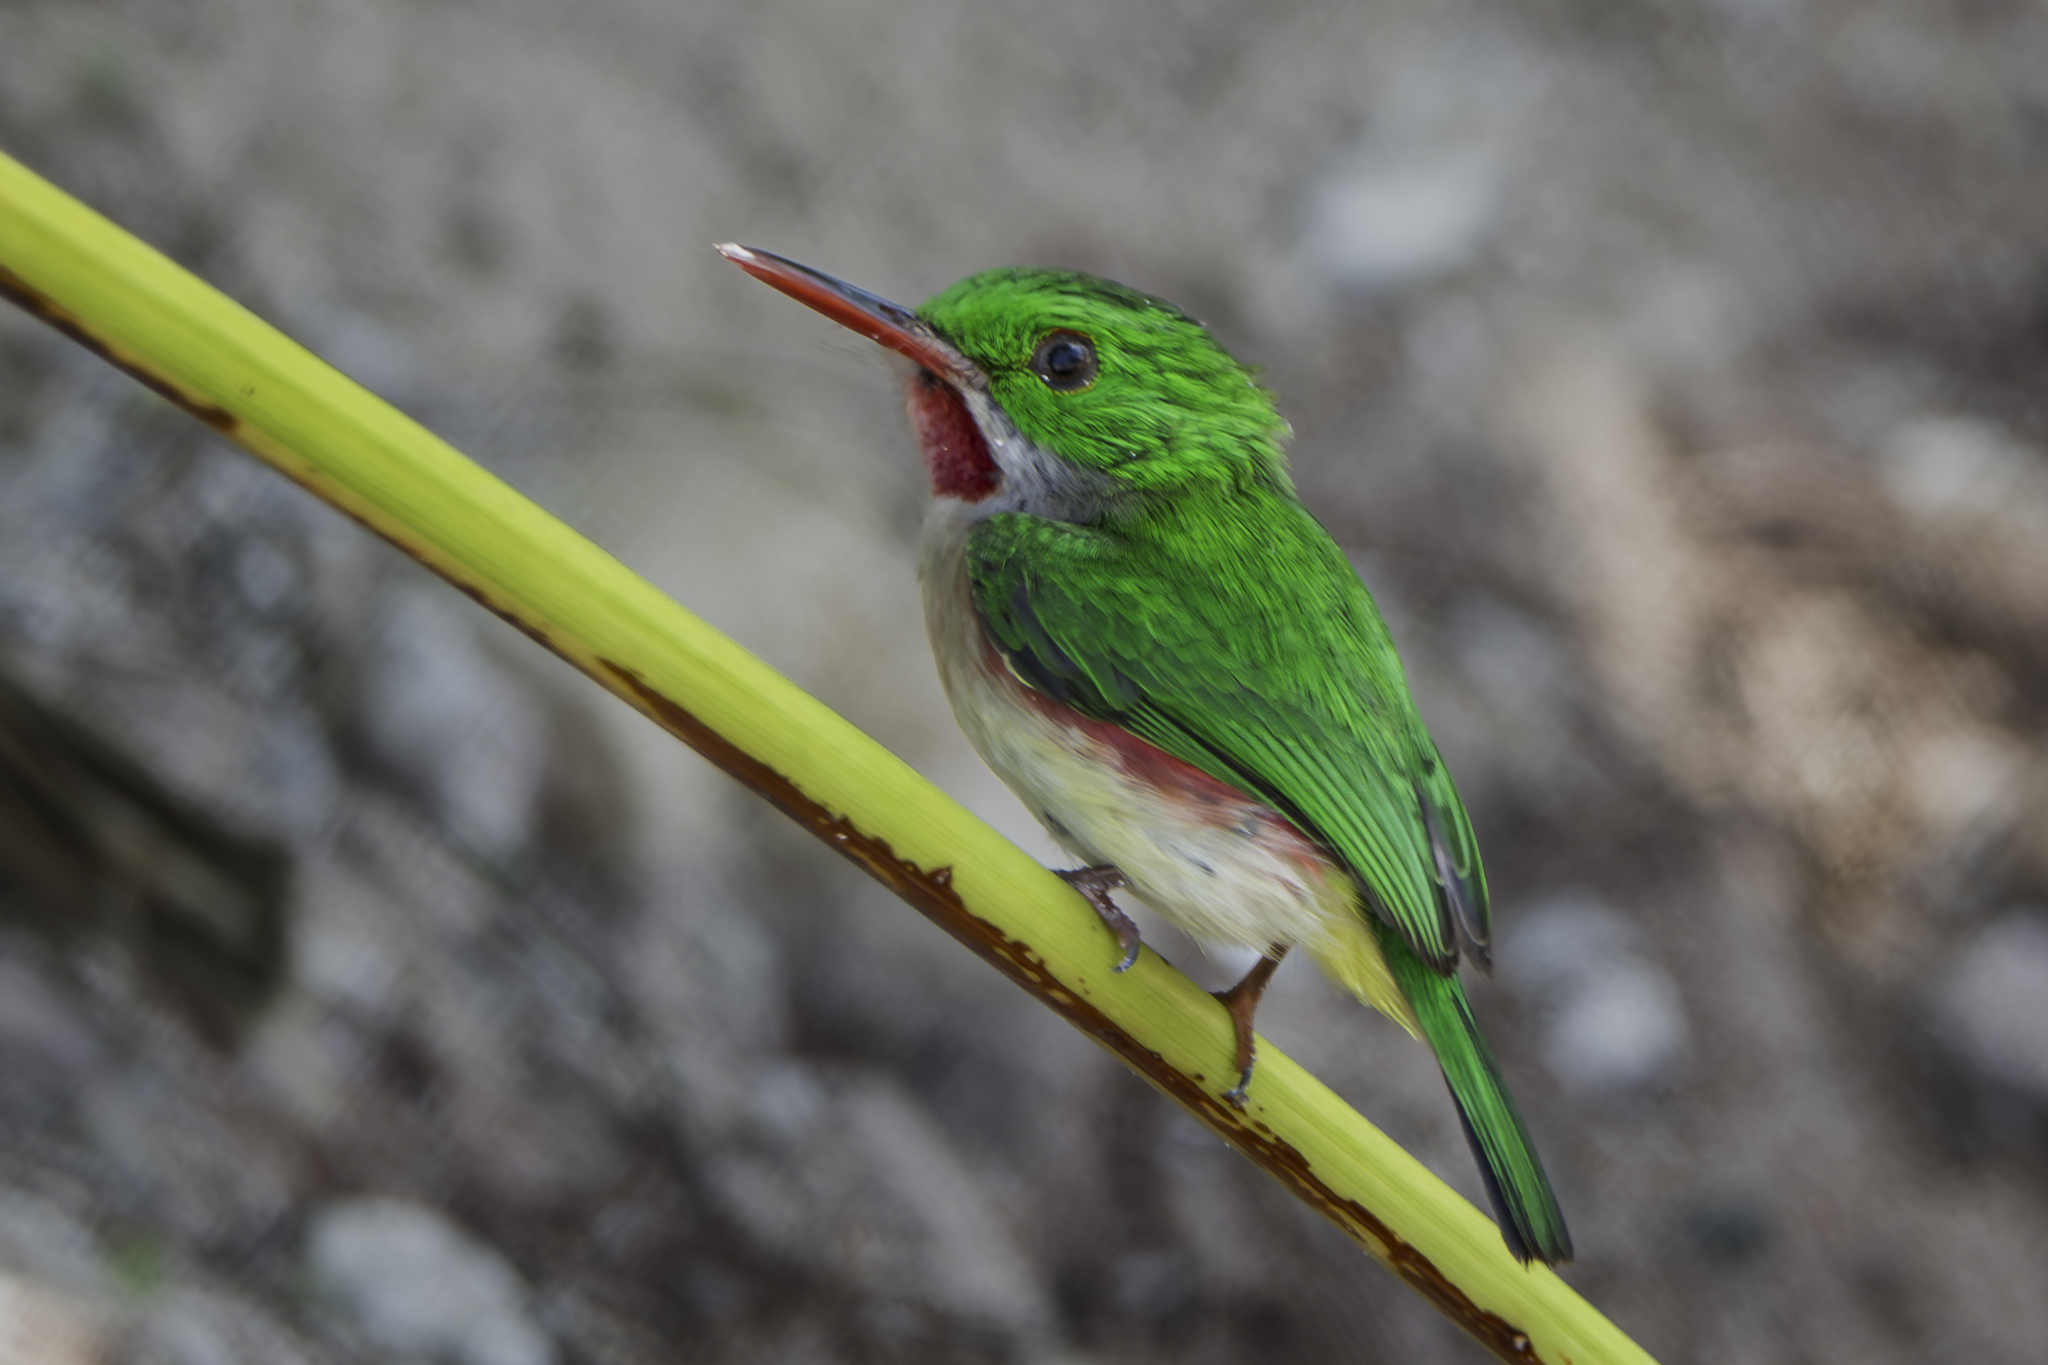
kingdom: Animalia
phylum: Chordata
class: Aves
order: Coraciiformes
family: Todidae
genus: Todus
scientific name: Todus subulatus
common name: Broad-billed tody
